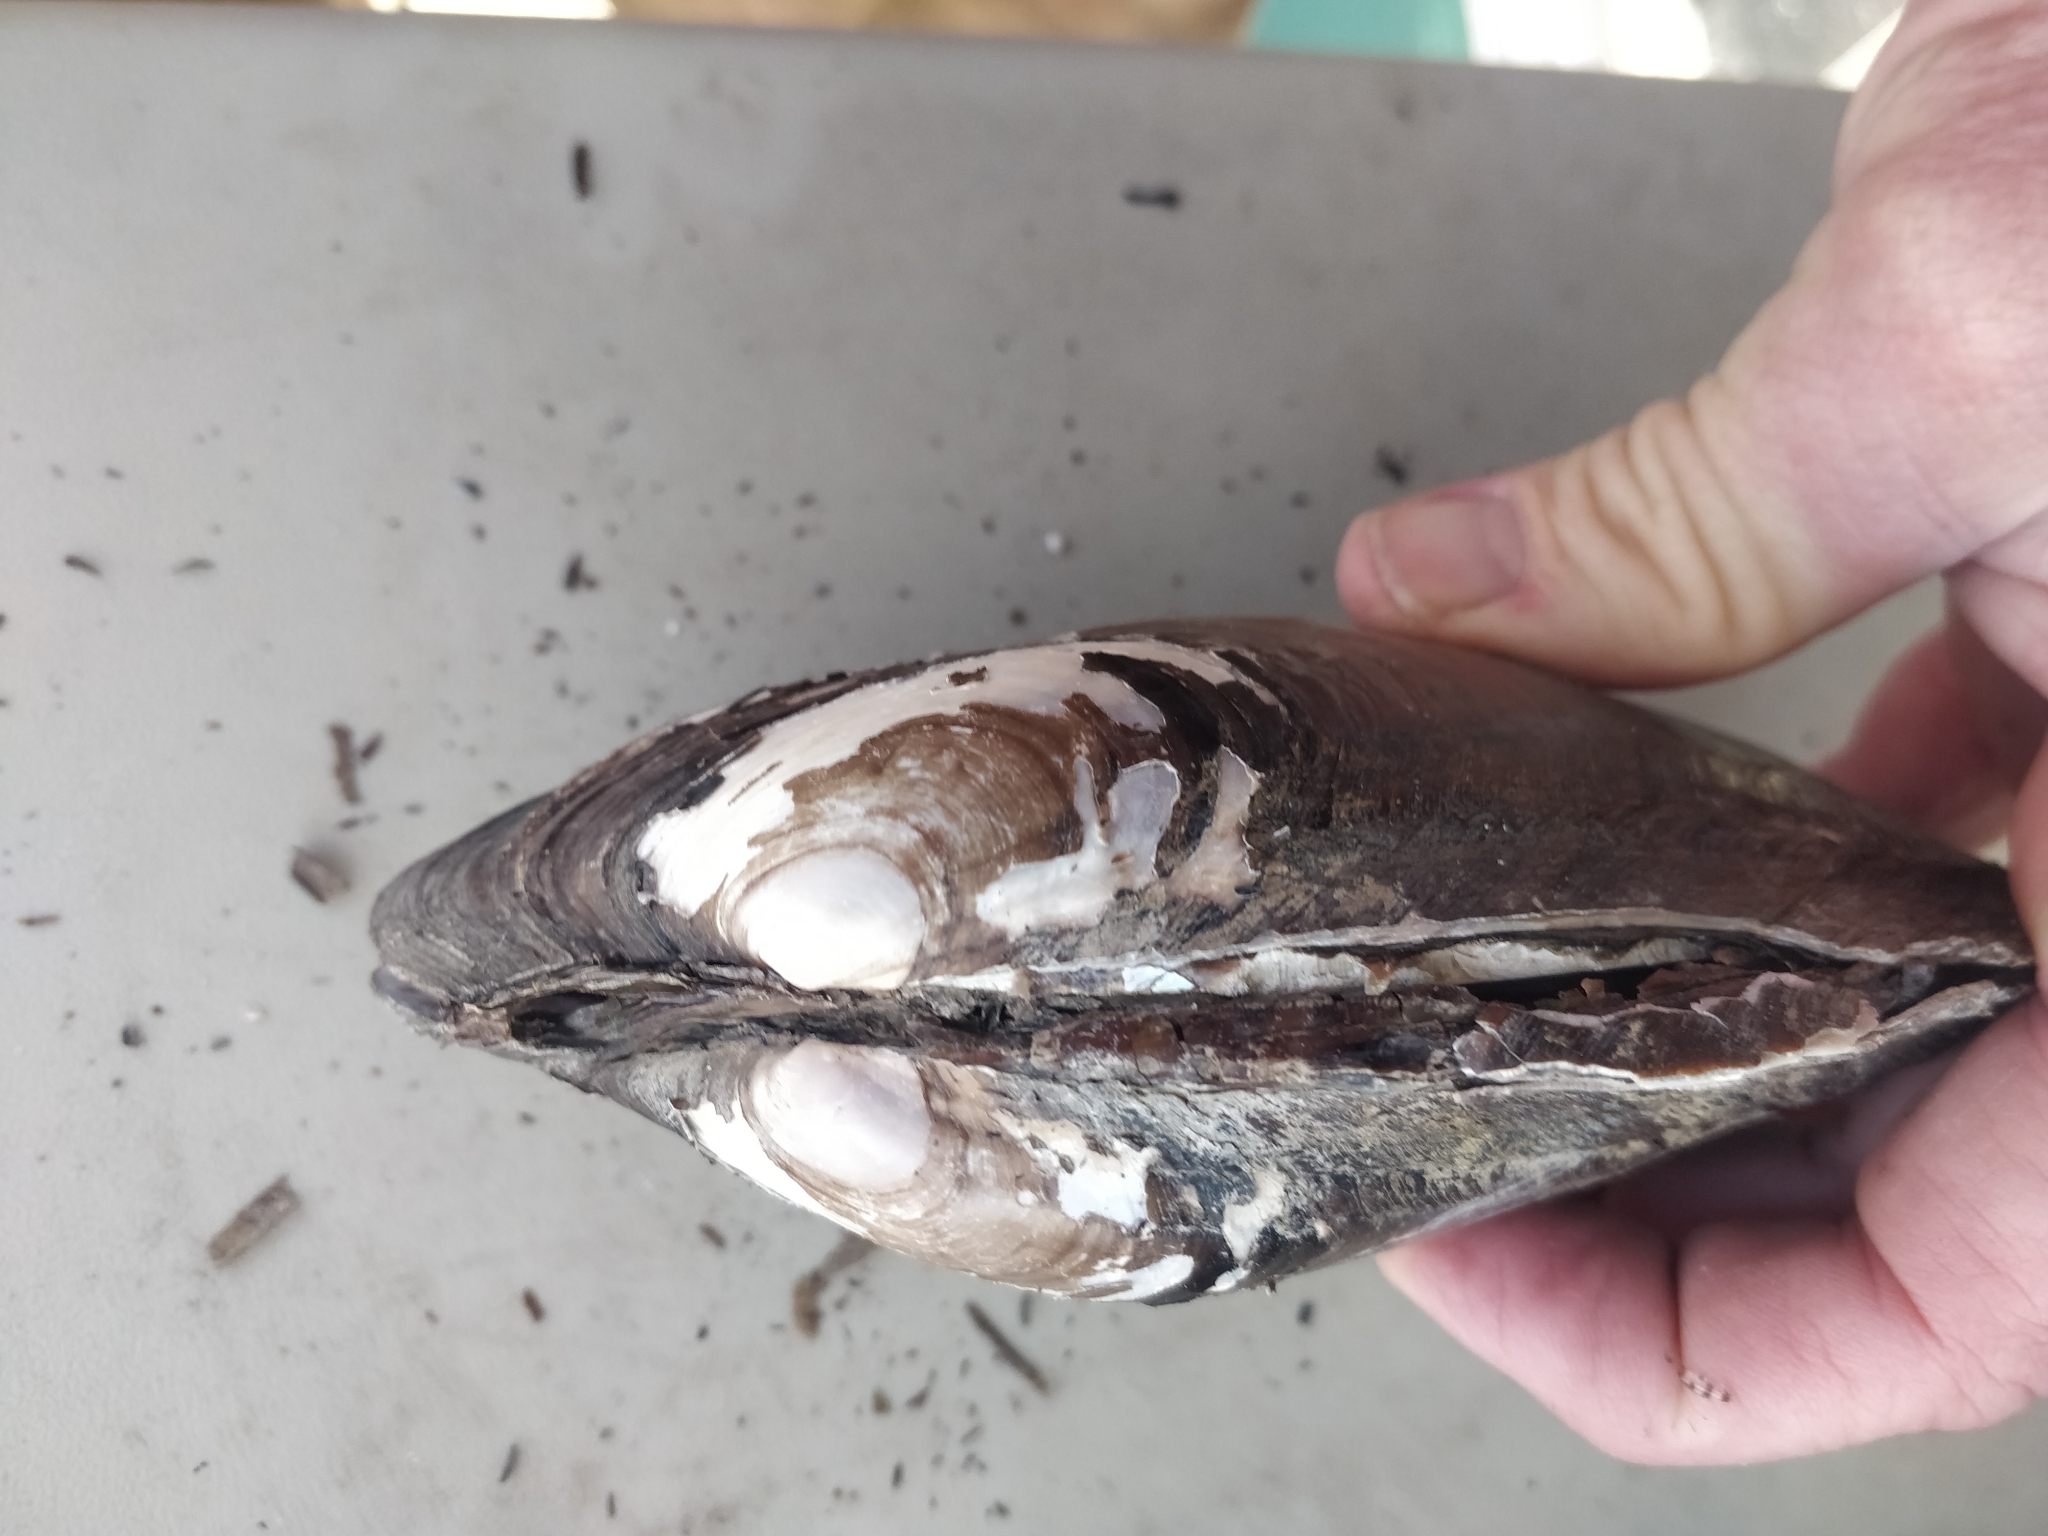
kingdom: Animalia
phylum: Mollusca
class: Bivalvia
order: Unionida
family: Unionidae
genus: Potamilus
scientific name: Potamilus alatus
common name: Pink heelsplitter
